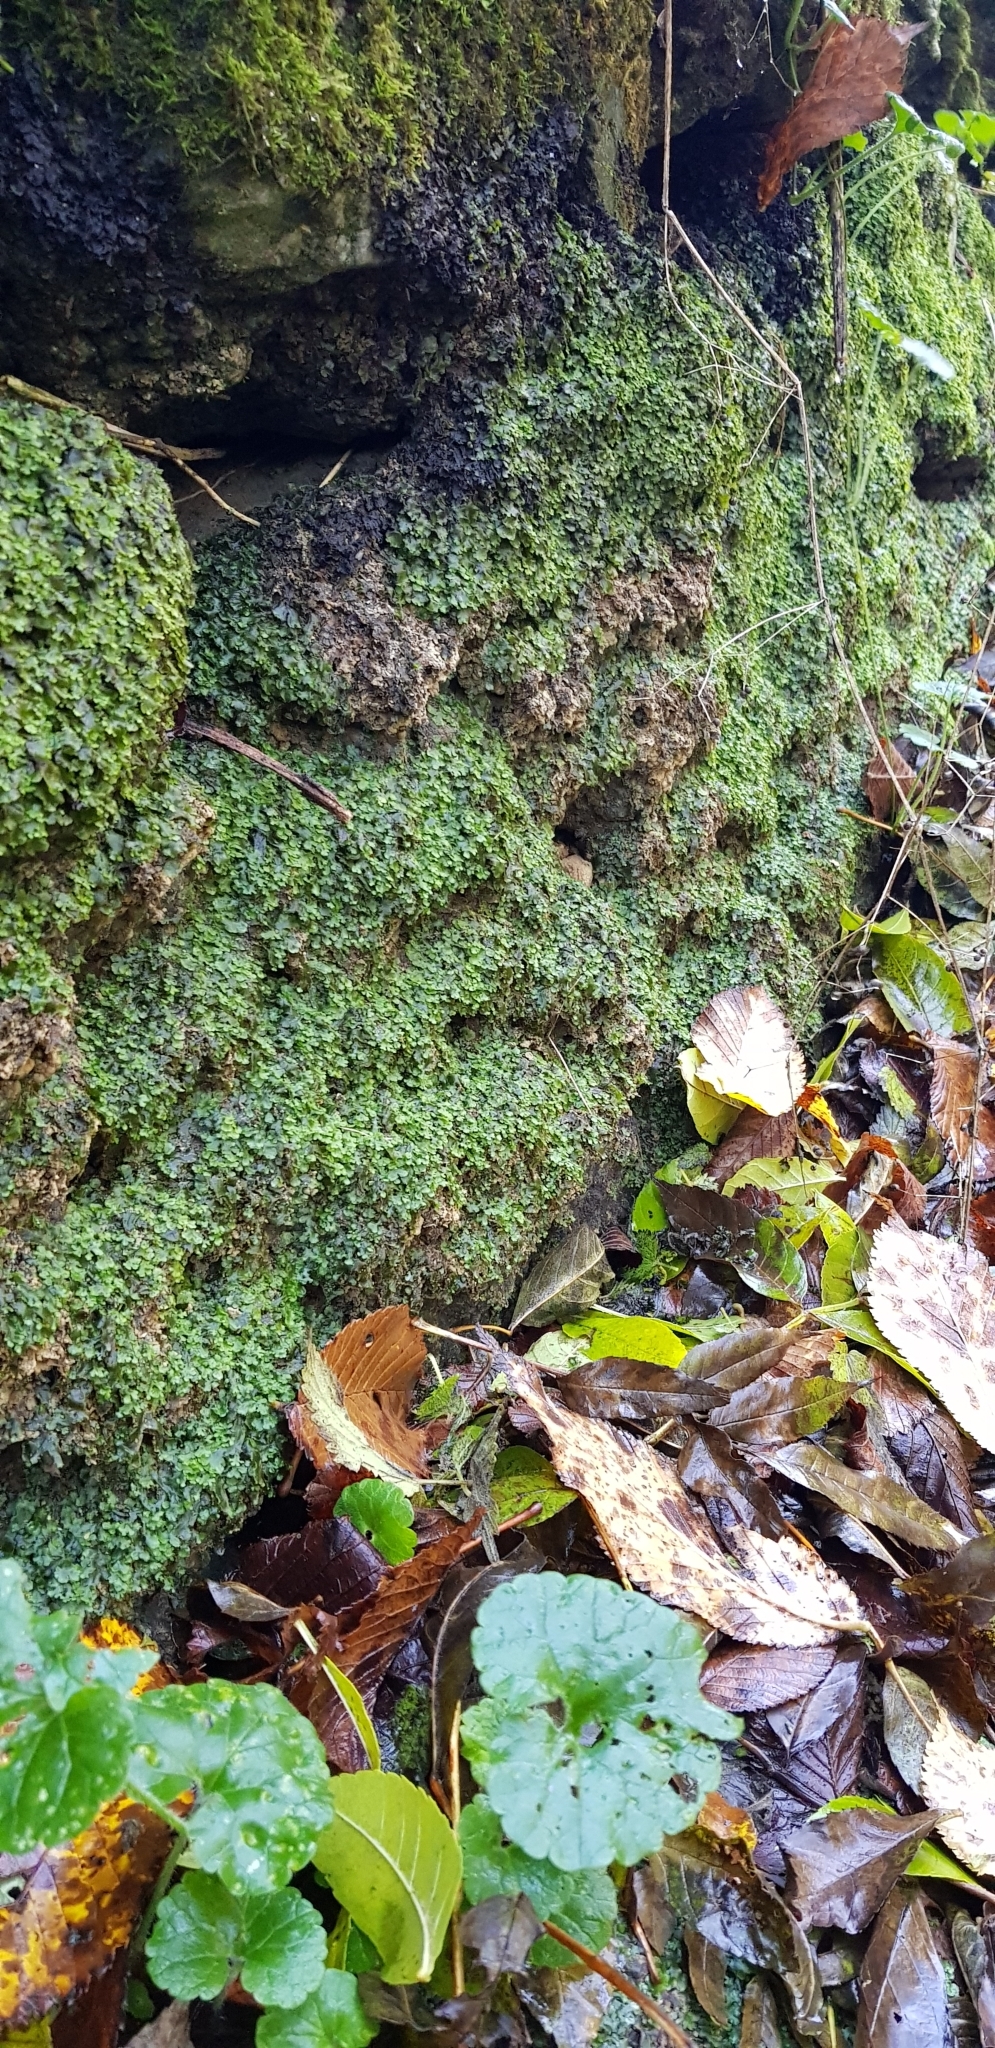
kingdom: Plantae
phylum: Marchantiophyta
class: Jungermanniopsida
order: Pelliales
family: Pelliaceae
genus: Apopellia
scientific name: Apopellia endiviifolia
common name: Endive pellia
